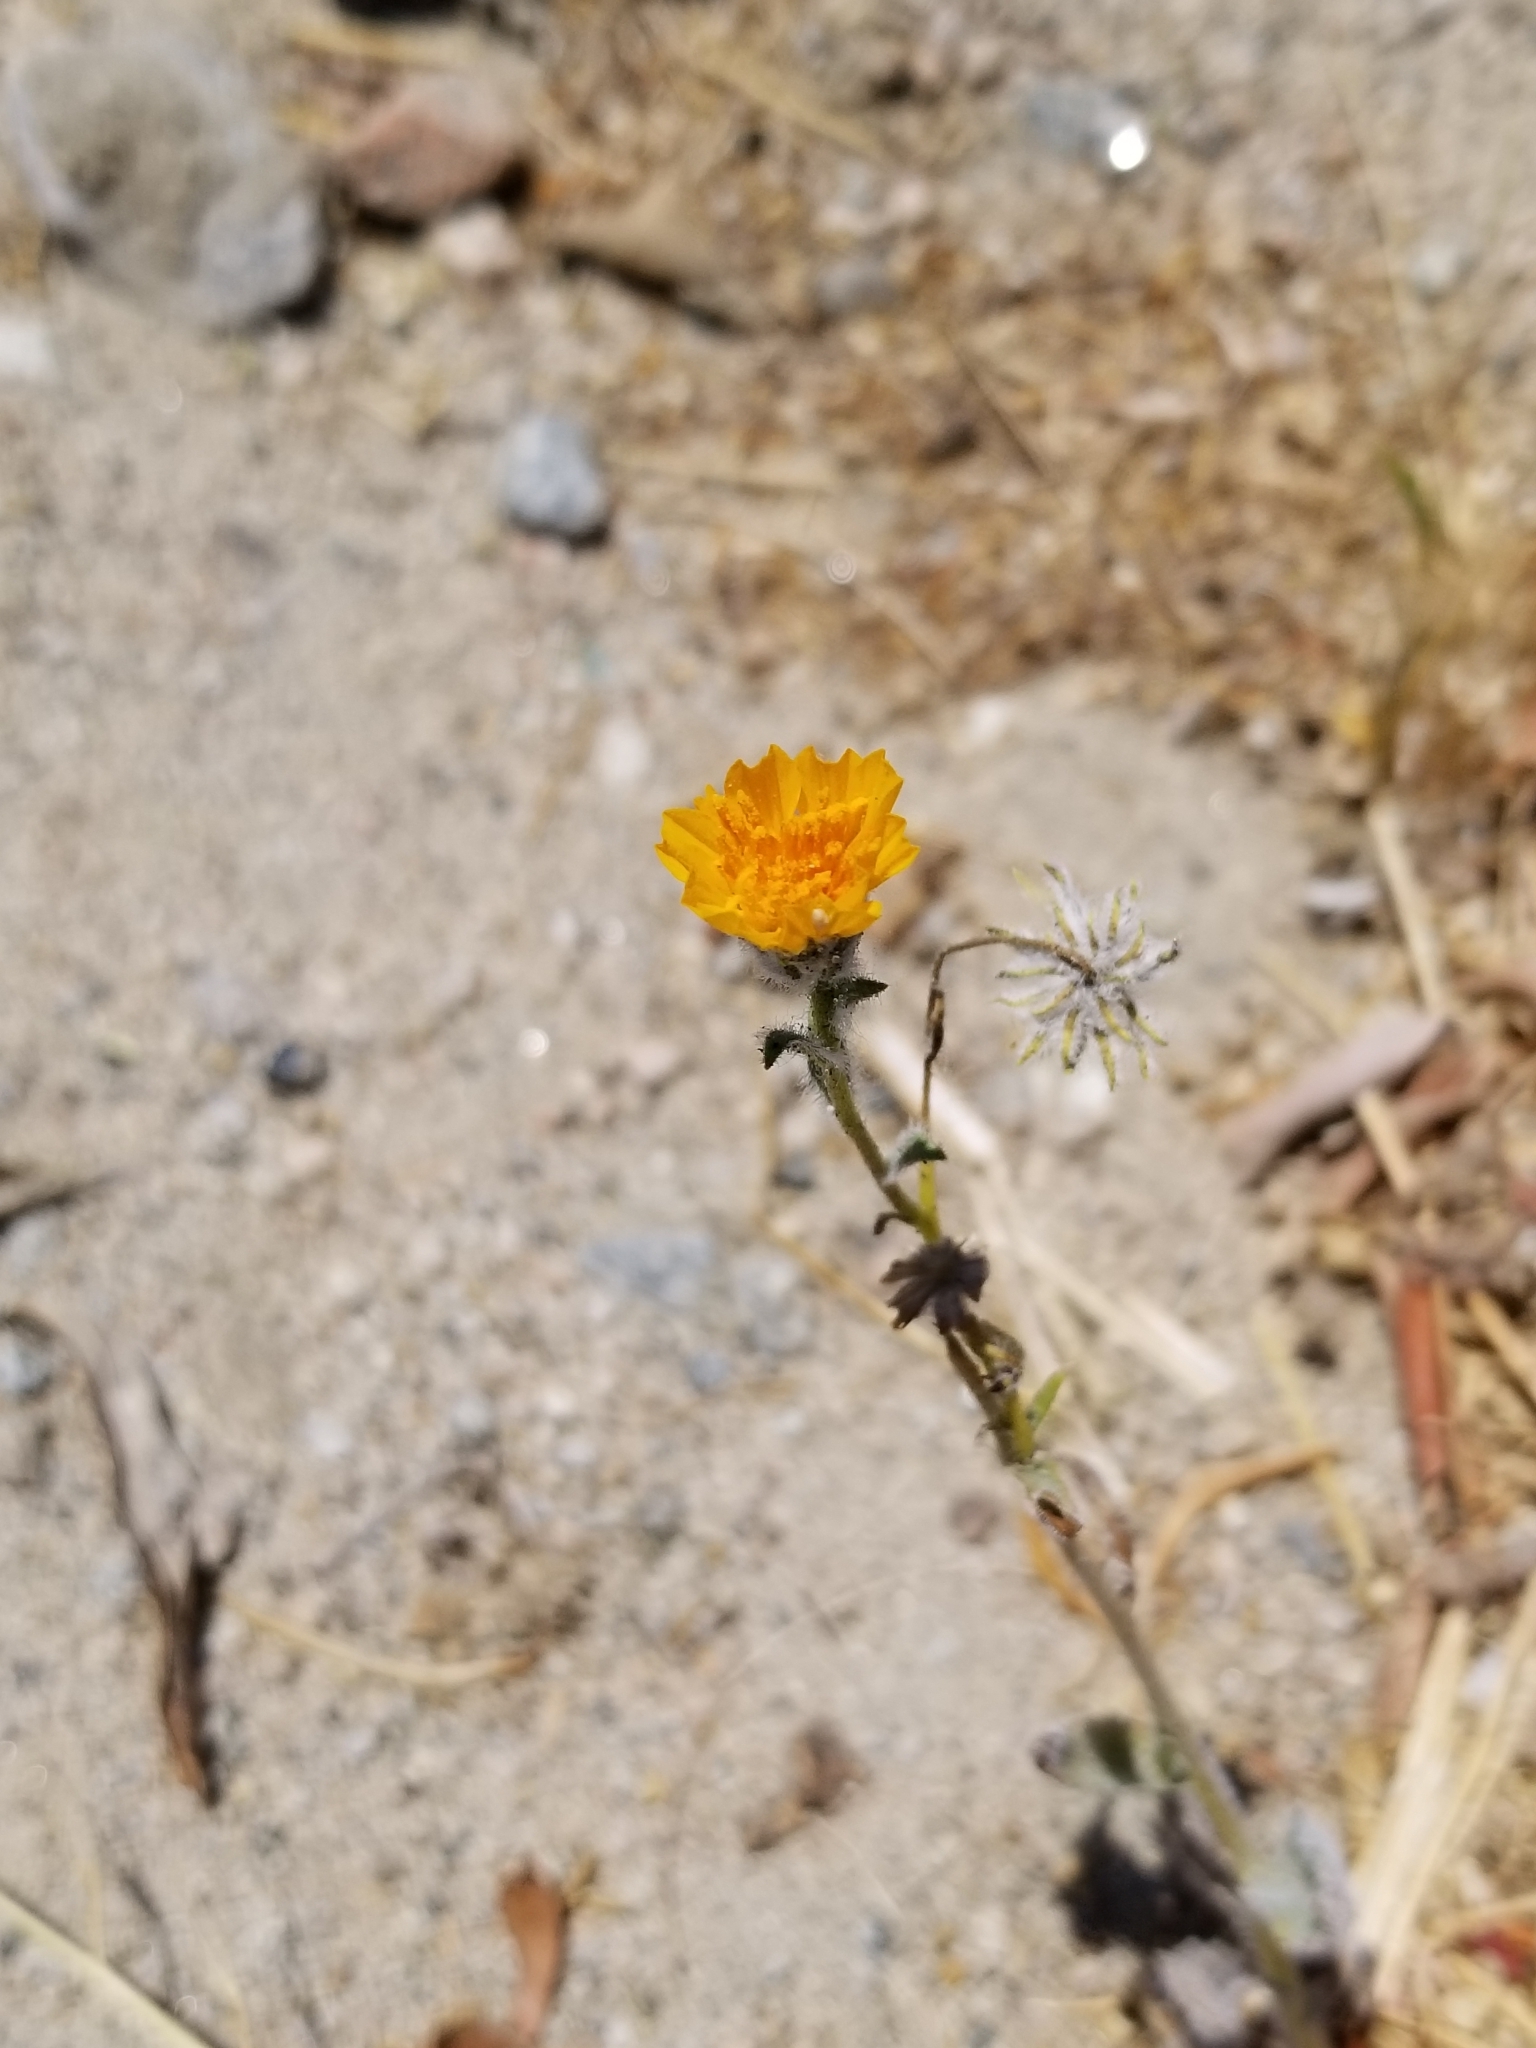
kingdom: Plantae
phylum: Tracheophyta
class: Magnoliopsida
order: Asterales
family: Asteraceae
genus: Geraea
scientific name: Geraea canescens
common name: Desert-gold
